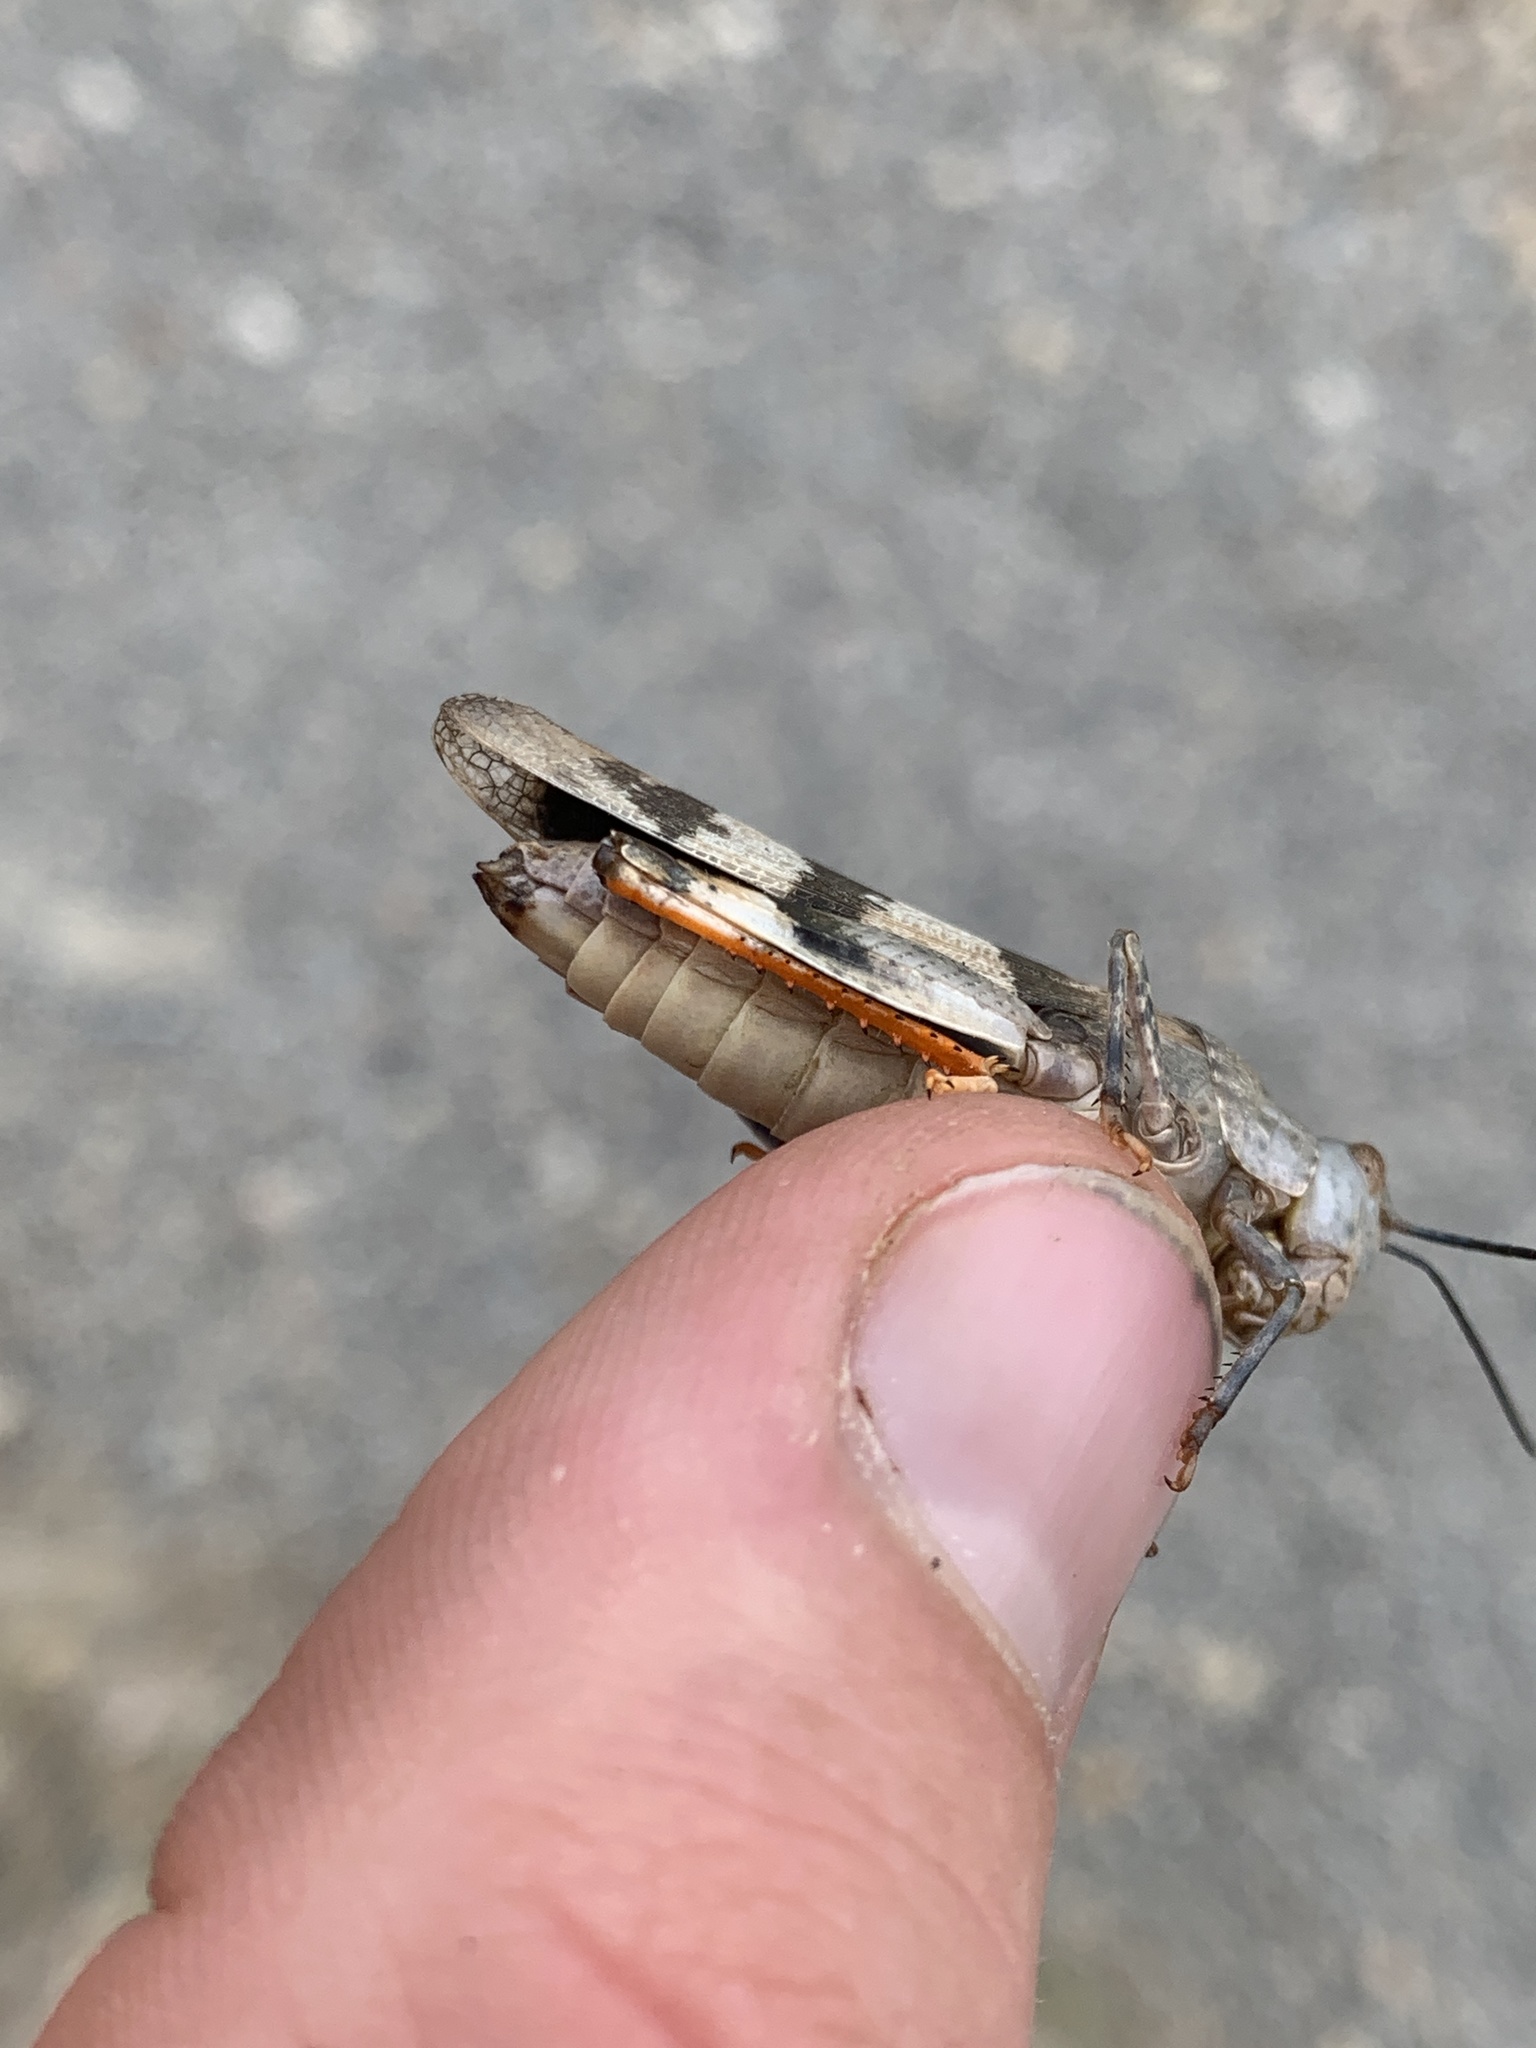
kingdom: Animalia
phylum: Arthropoda
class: Insecta
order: Orthoptera
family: Acrididae
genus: Hadrotettix
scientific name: Hadrotettix trifasciatus
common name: Threebanded grasshopper
